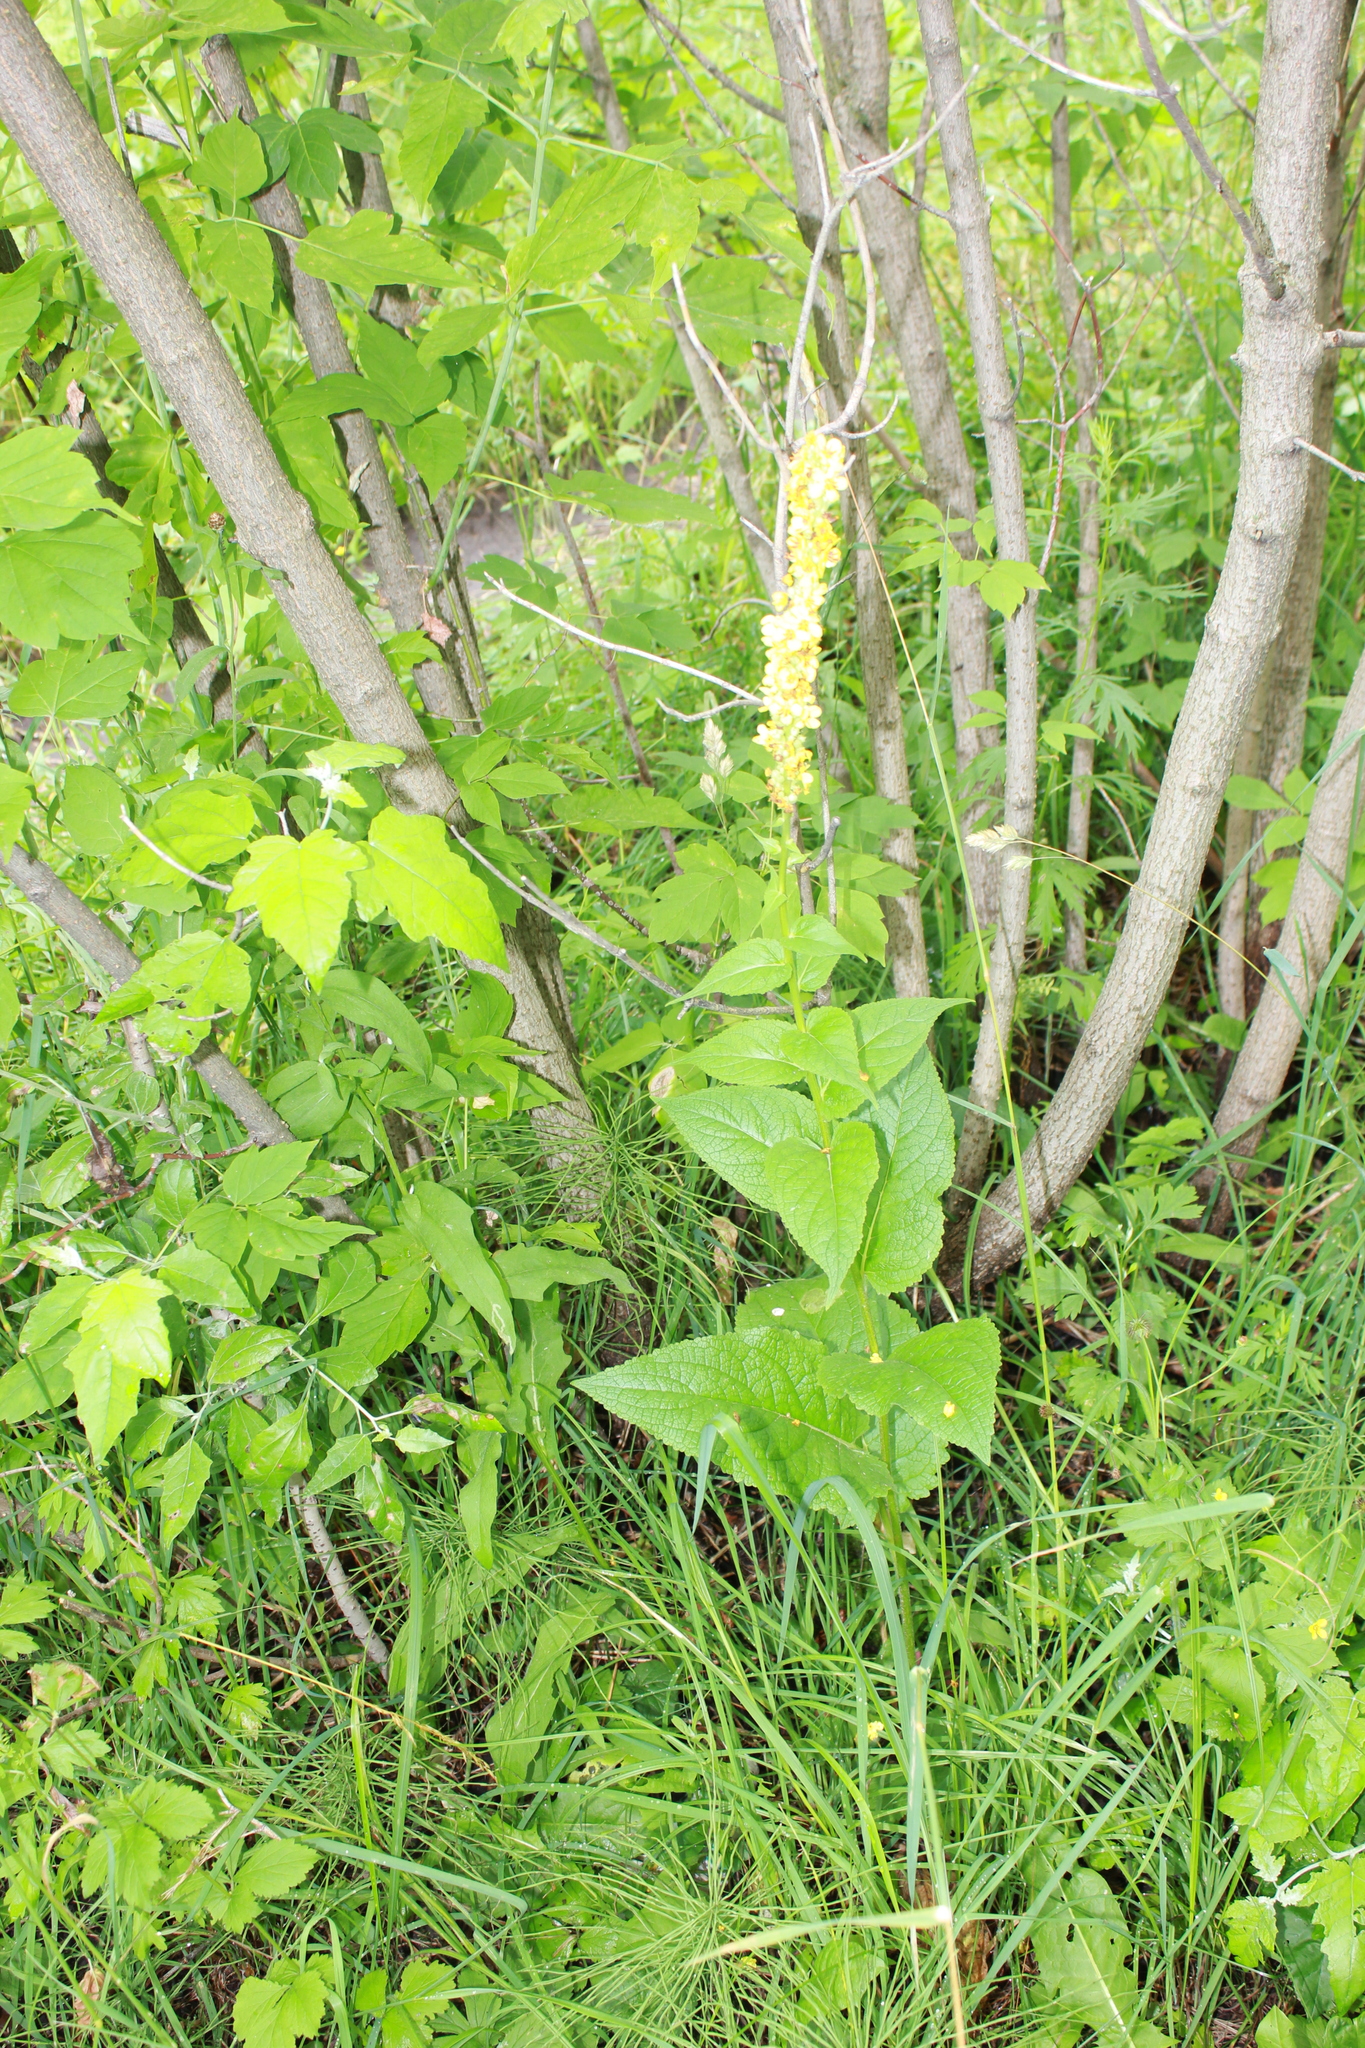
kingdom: Plantae
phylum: Tracheophyta
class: Magnoliopsida
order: Lamiales
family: Scrophulariaceae
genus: Verbascum
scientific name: Verbascum nigrum
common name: Dark mullein
